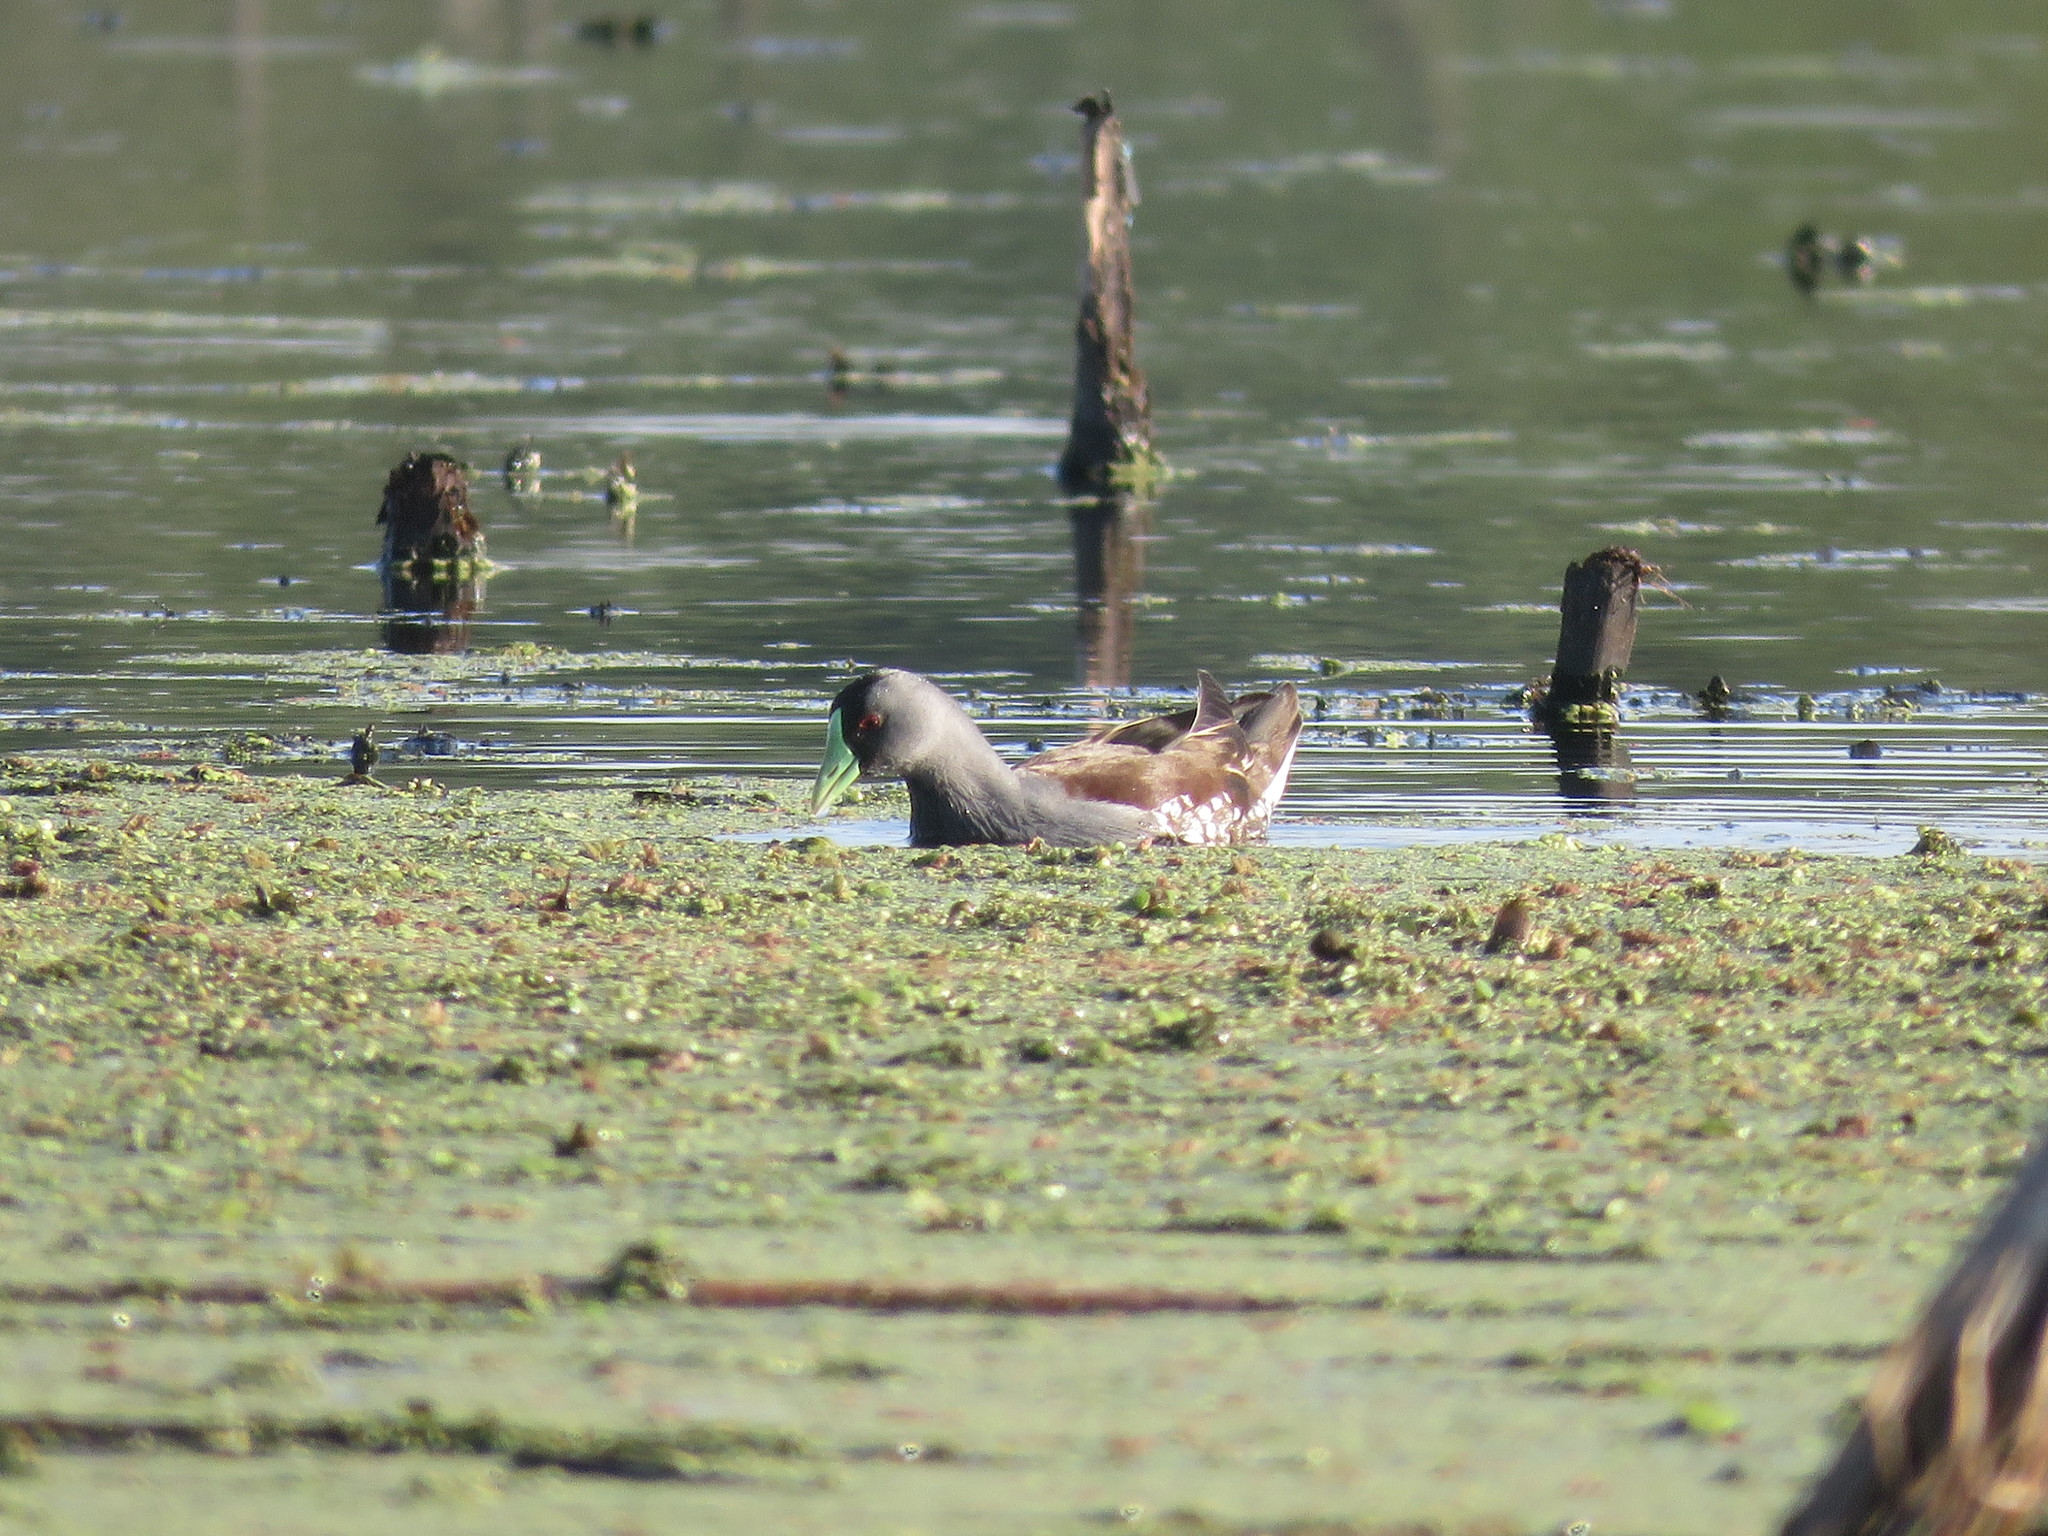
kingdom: Animalia
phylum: Chordata
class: Aves
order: Gruiformes
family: Rallidae
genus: Gallinula
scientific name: Gallinula melanops
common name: Spot-flanked gallinule
